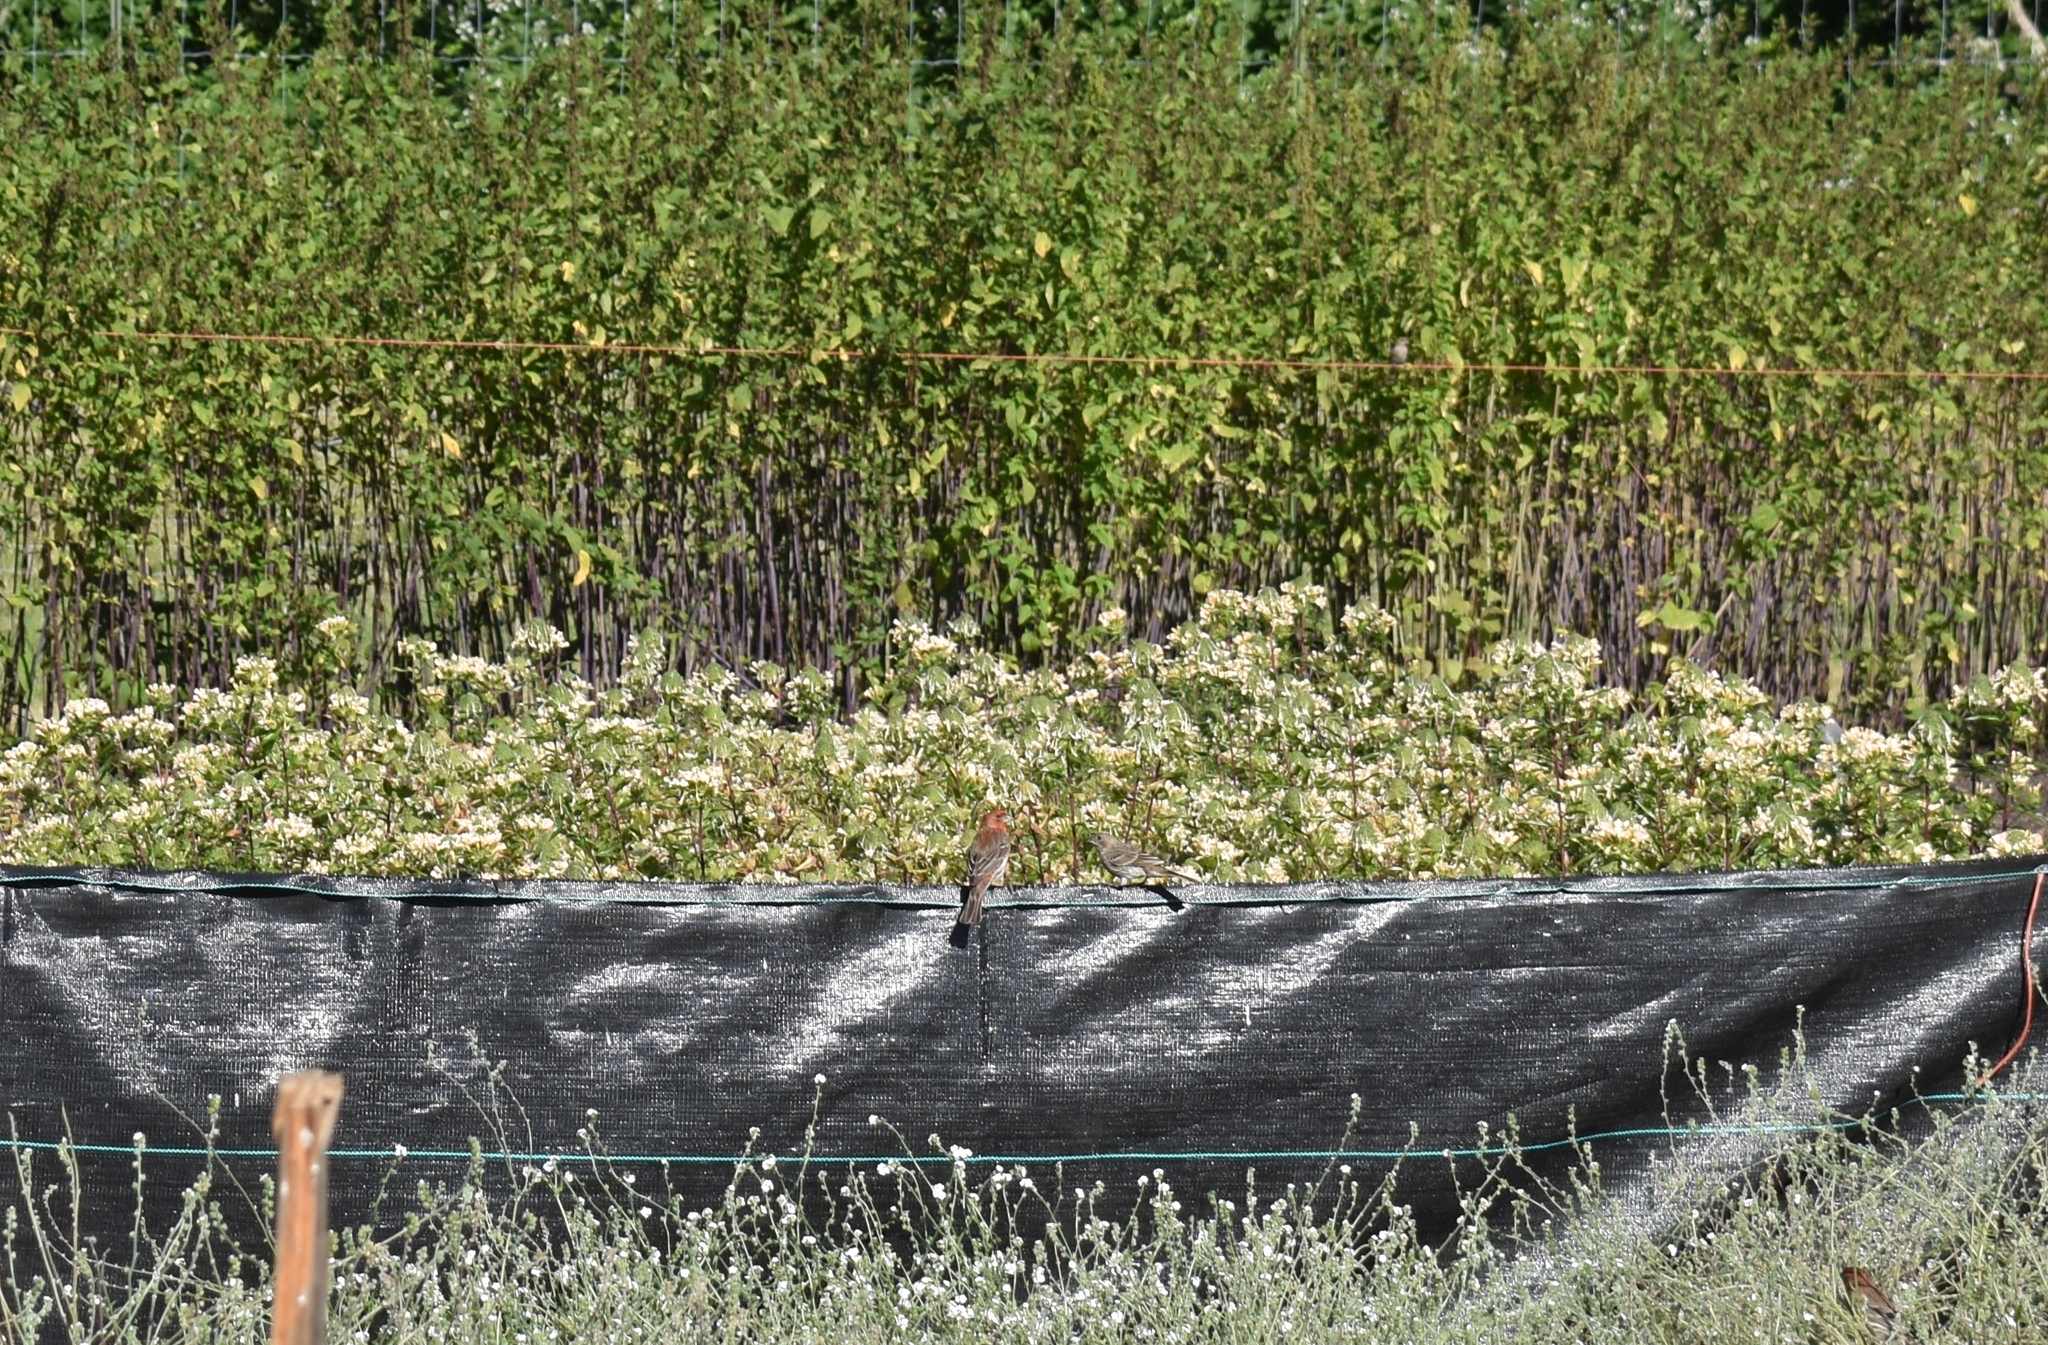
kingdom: Animalia
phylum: Chordata
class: Aves
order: Passeriformes
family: Fringillidae
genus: Haemorhous
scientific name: Haemorhous mexicanus
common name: House finch
